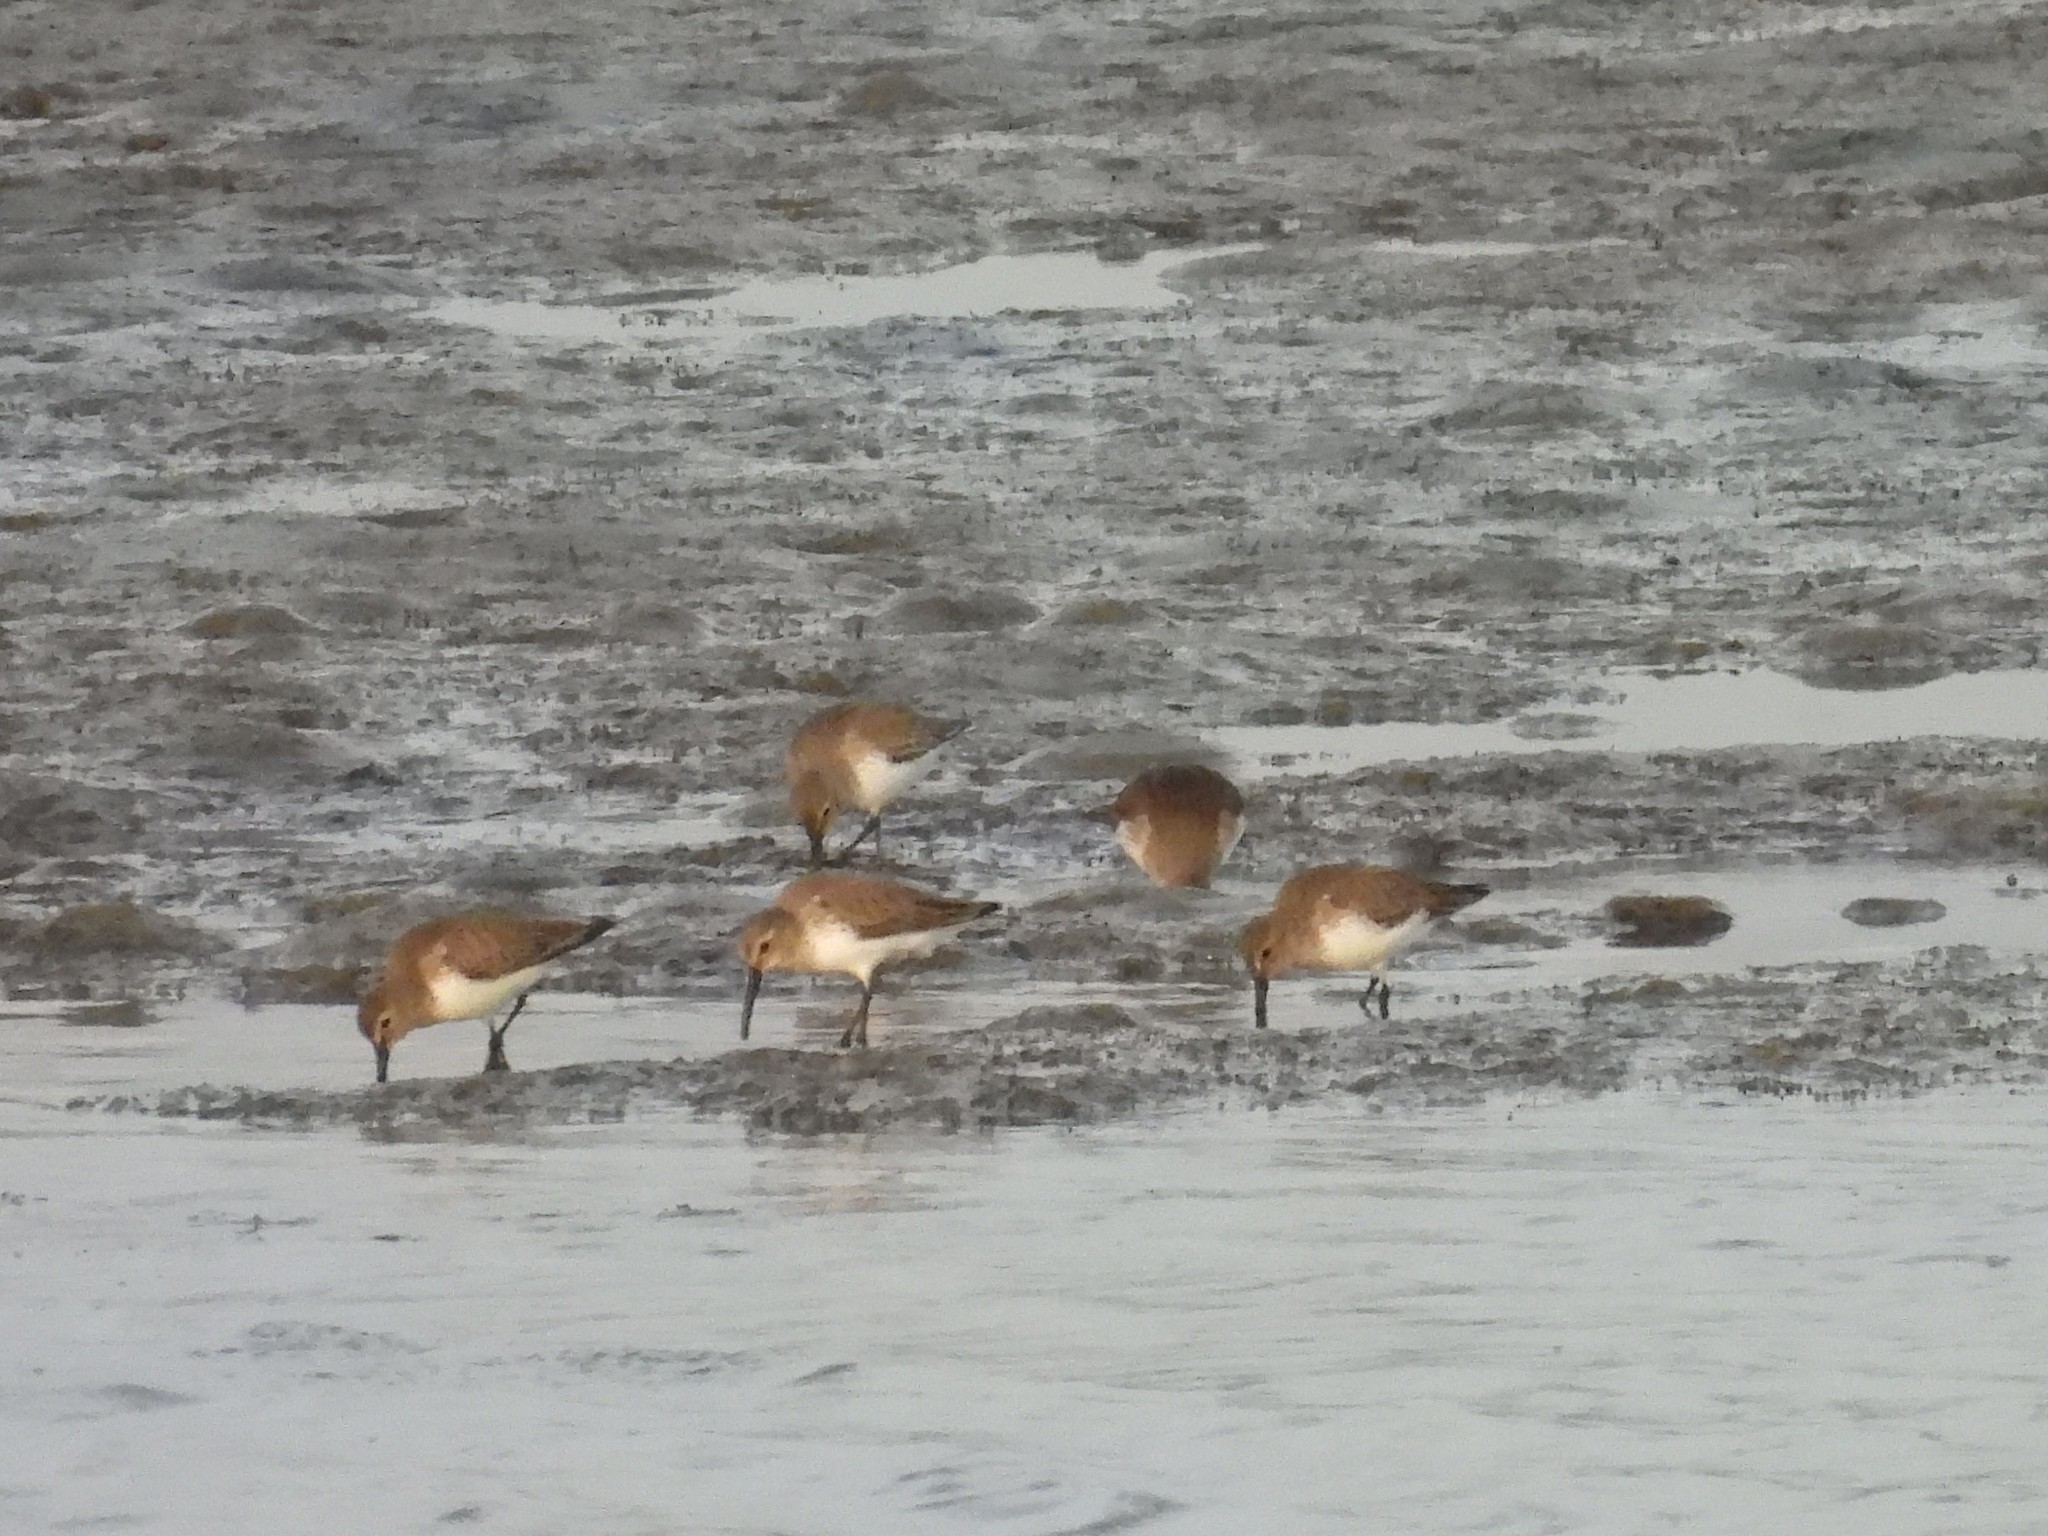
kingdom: Animalia
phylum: Chordata
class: Aves
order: Charadriiformes
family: Scolopacidae
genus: Calidris
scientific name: Calidris alpina
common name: Dunlin
